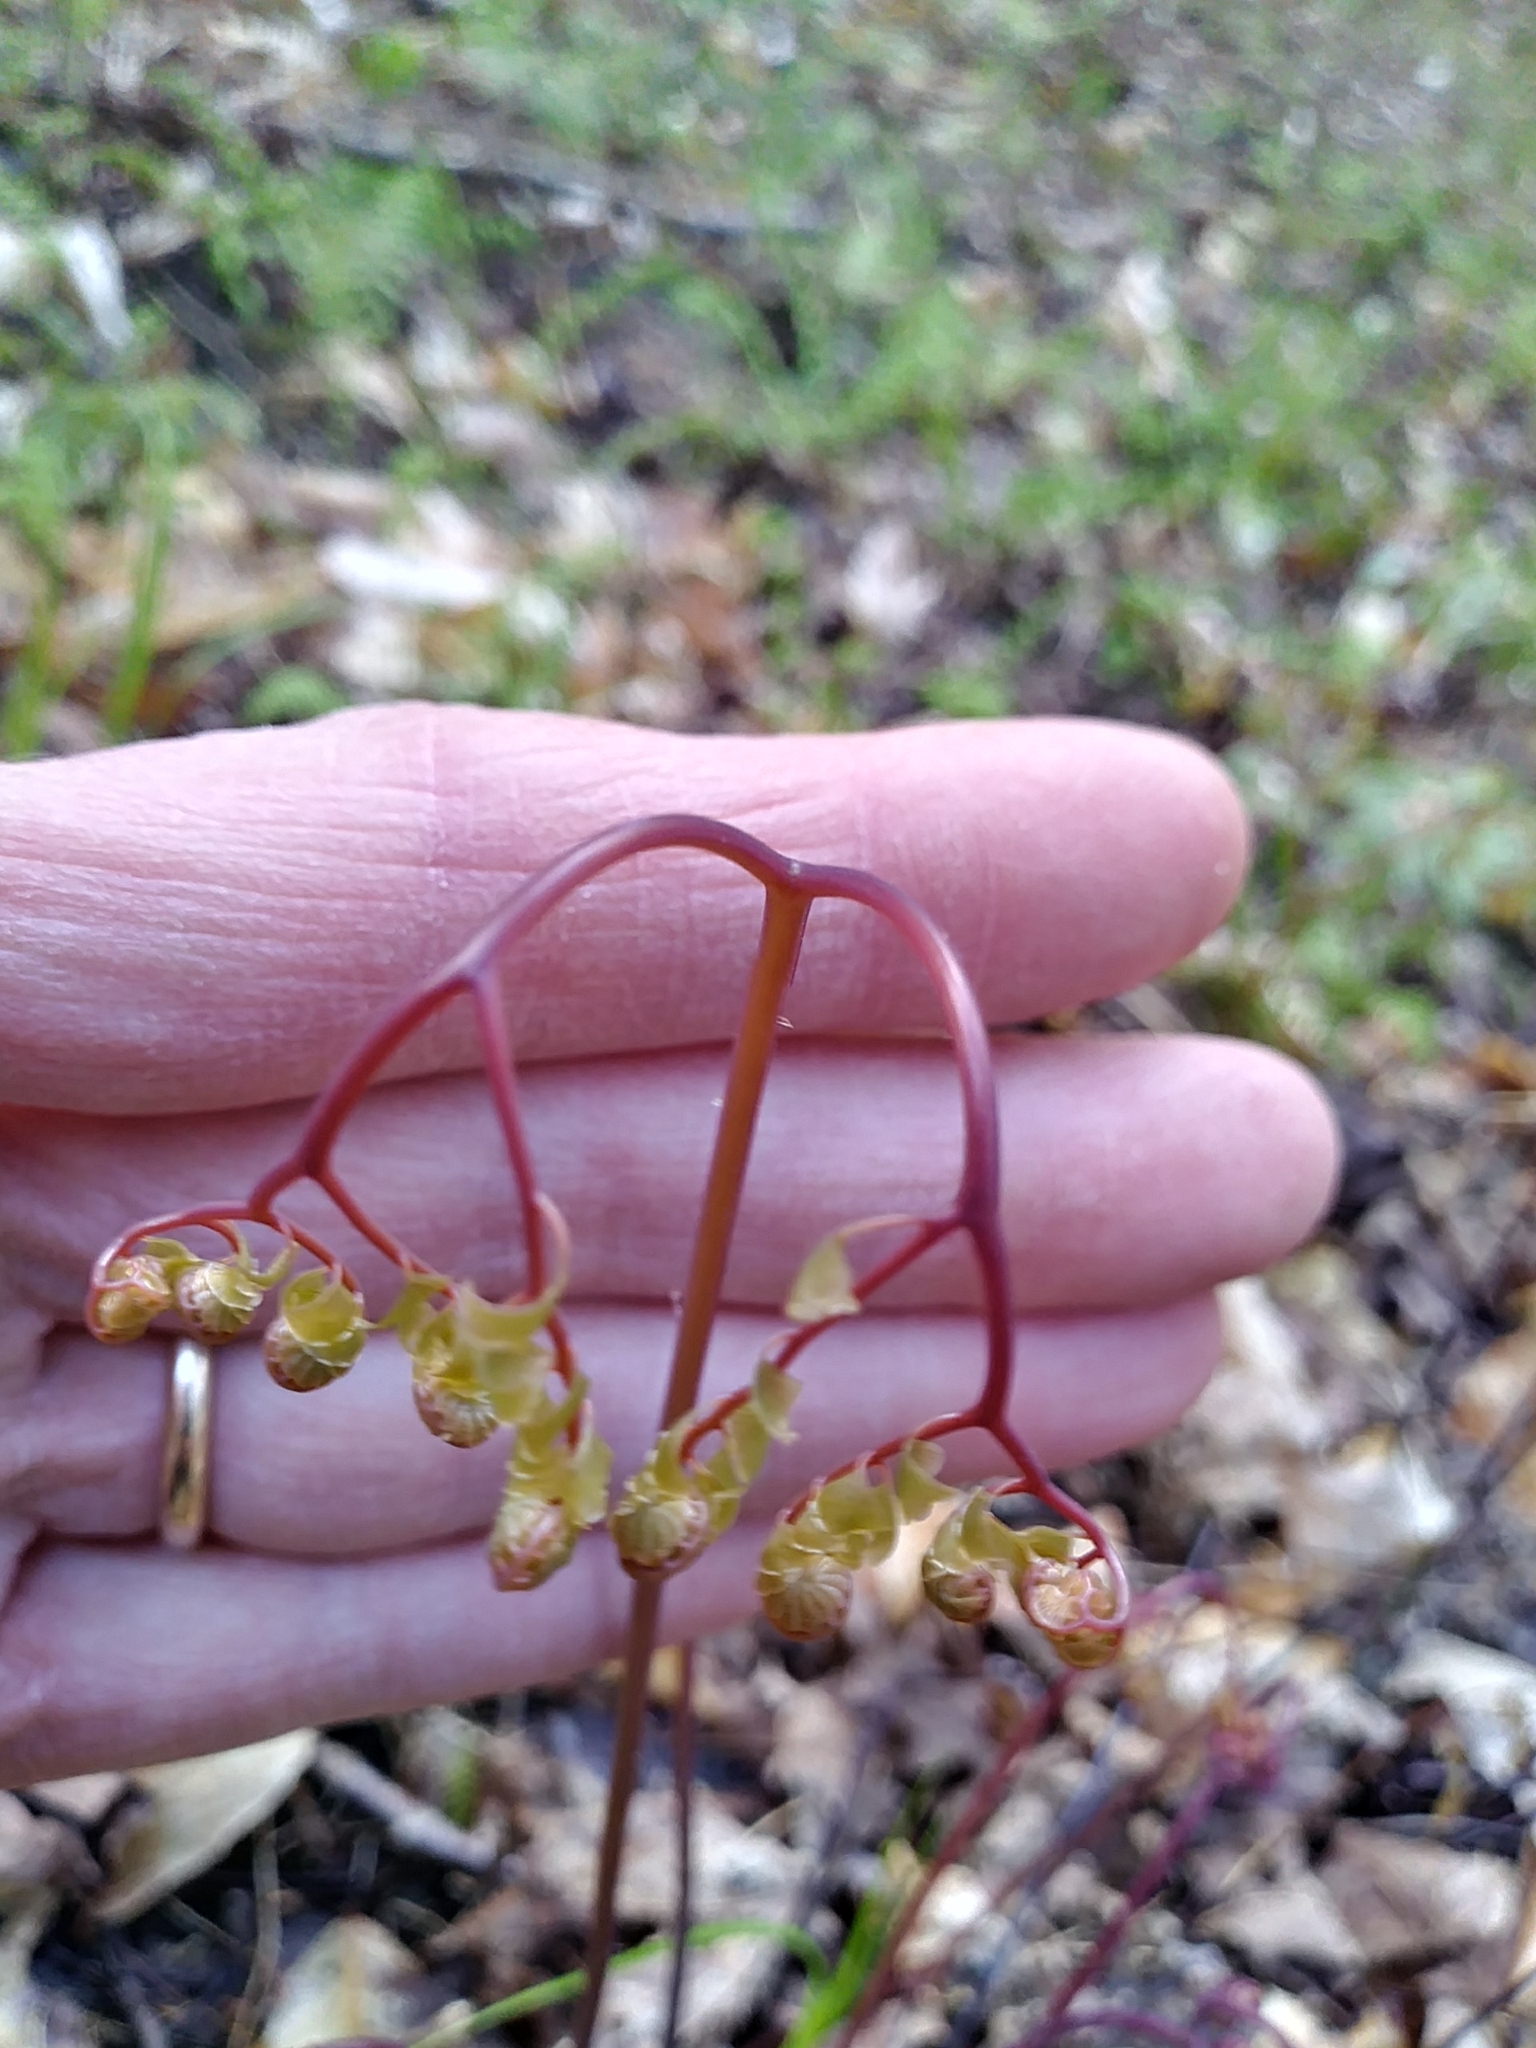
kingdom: Plantae
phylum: Tracheophyta
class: Polypodiopsida
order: Polypodiales
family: Pteridaceae
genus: Adiantum
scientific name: Adiantum pedatum
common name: Five-finger fern
